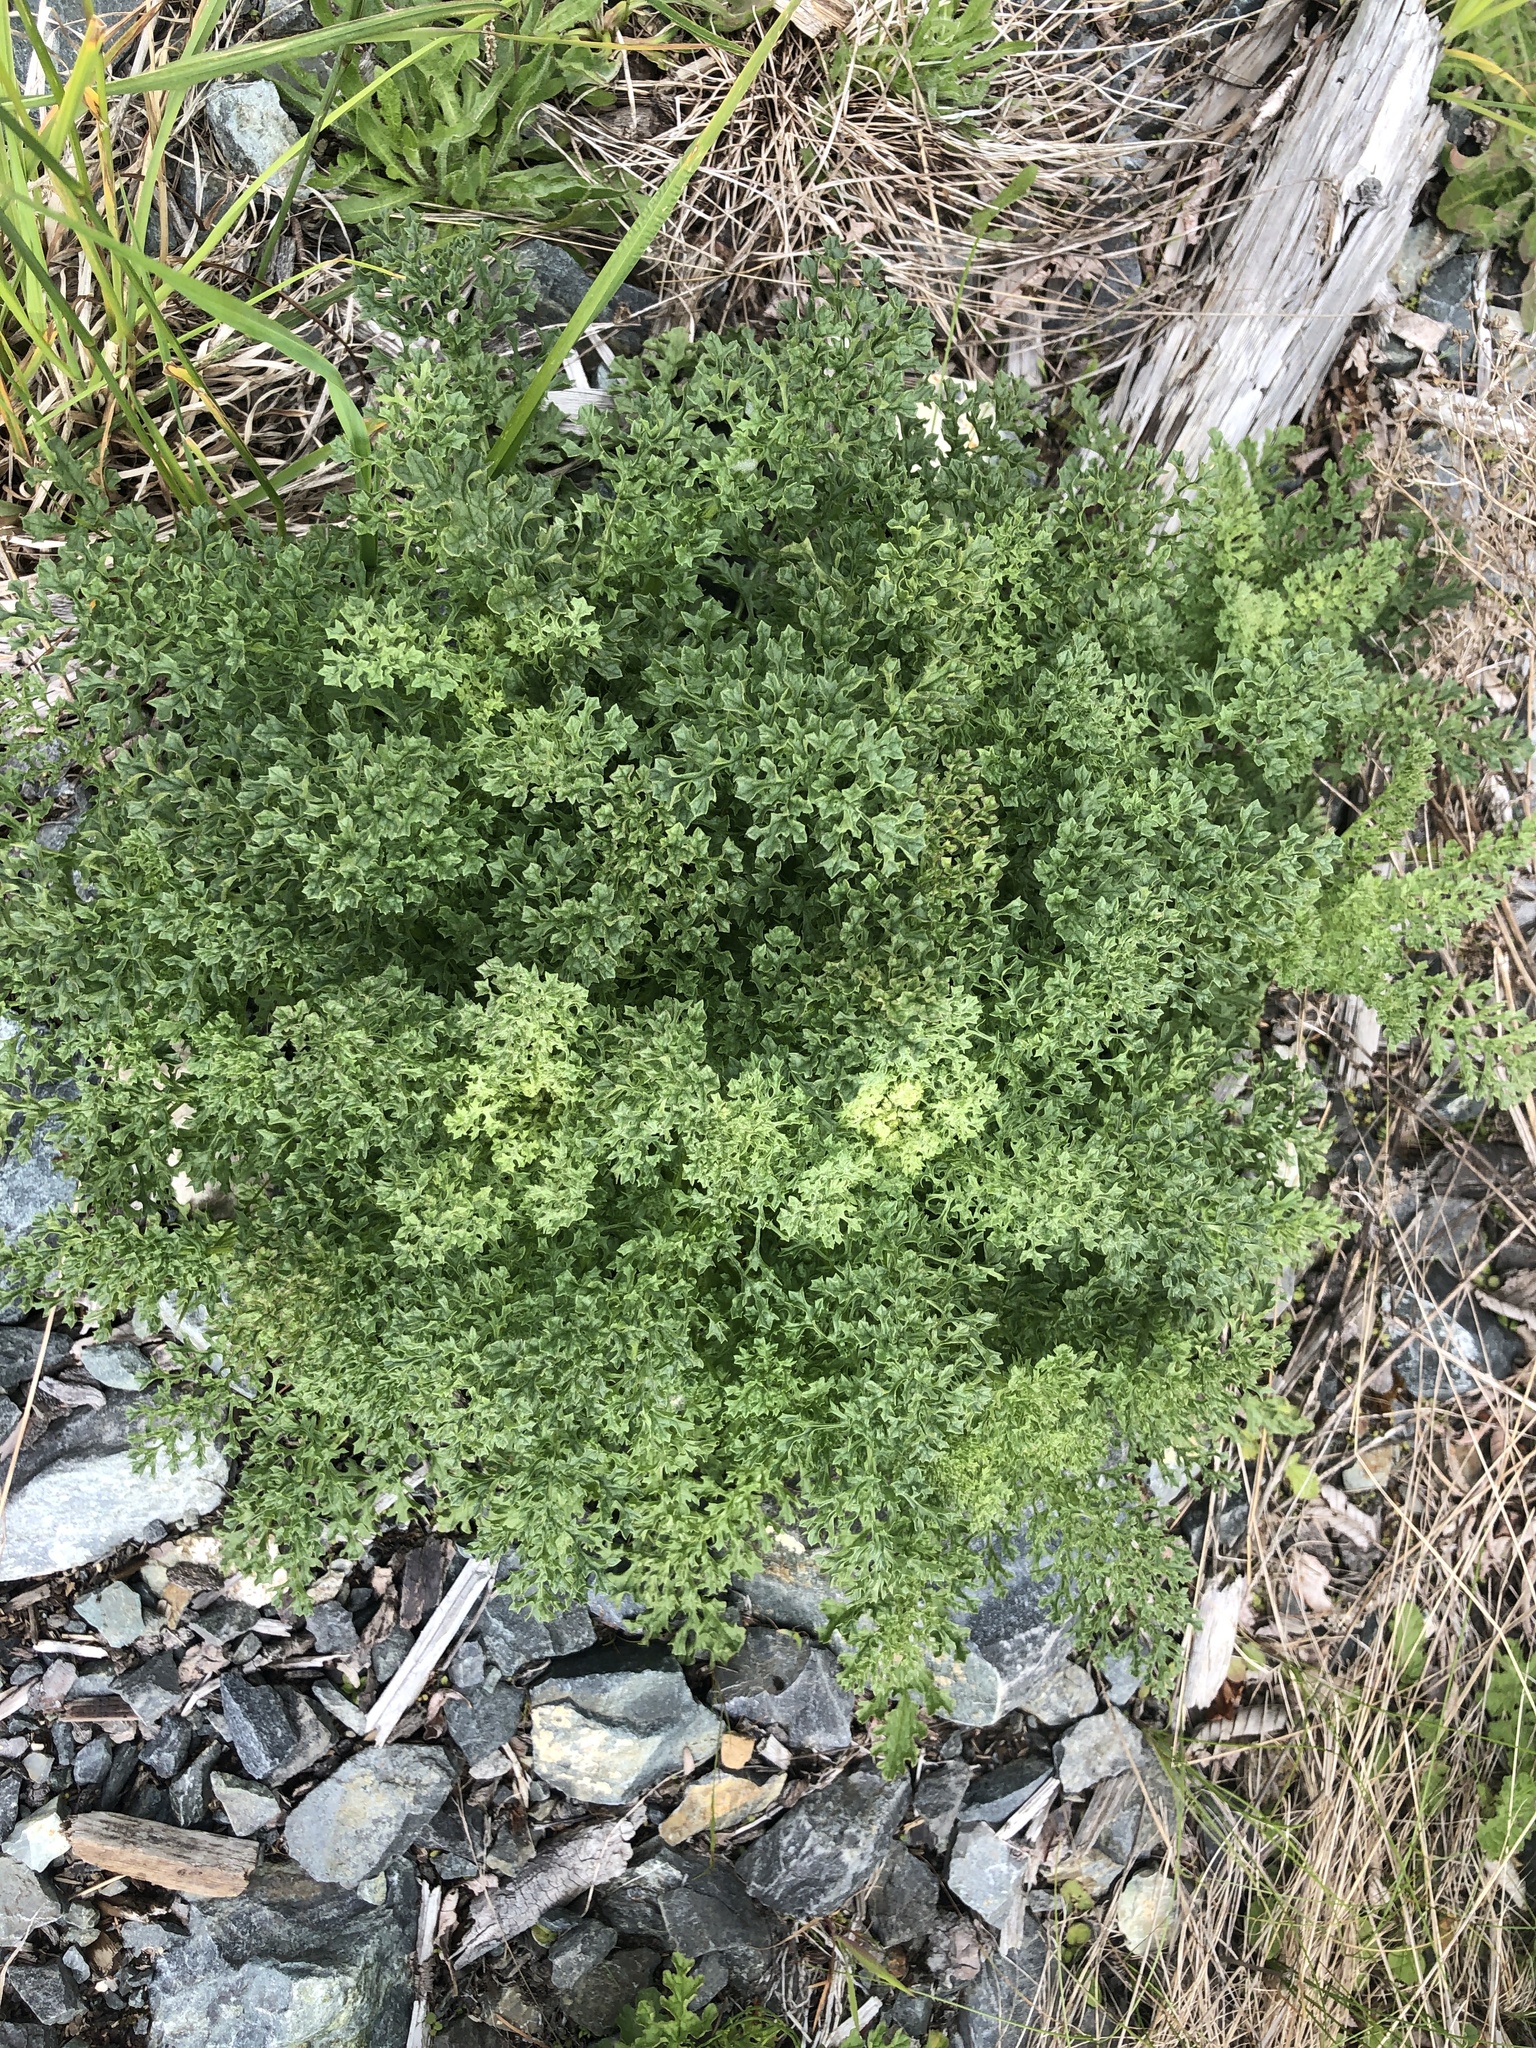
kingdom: Plantae
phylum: Tracheophyta
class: Magnoliopsida
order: Asterales
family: Asteraceae
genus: Jacobaea
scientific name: Jacobaea vulgaris
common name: Stinking willie
